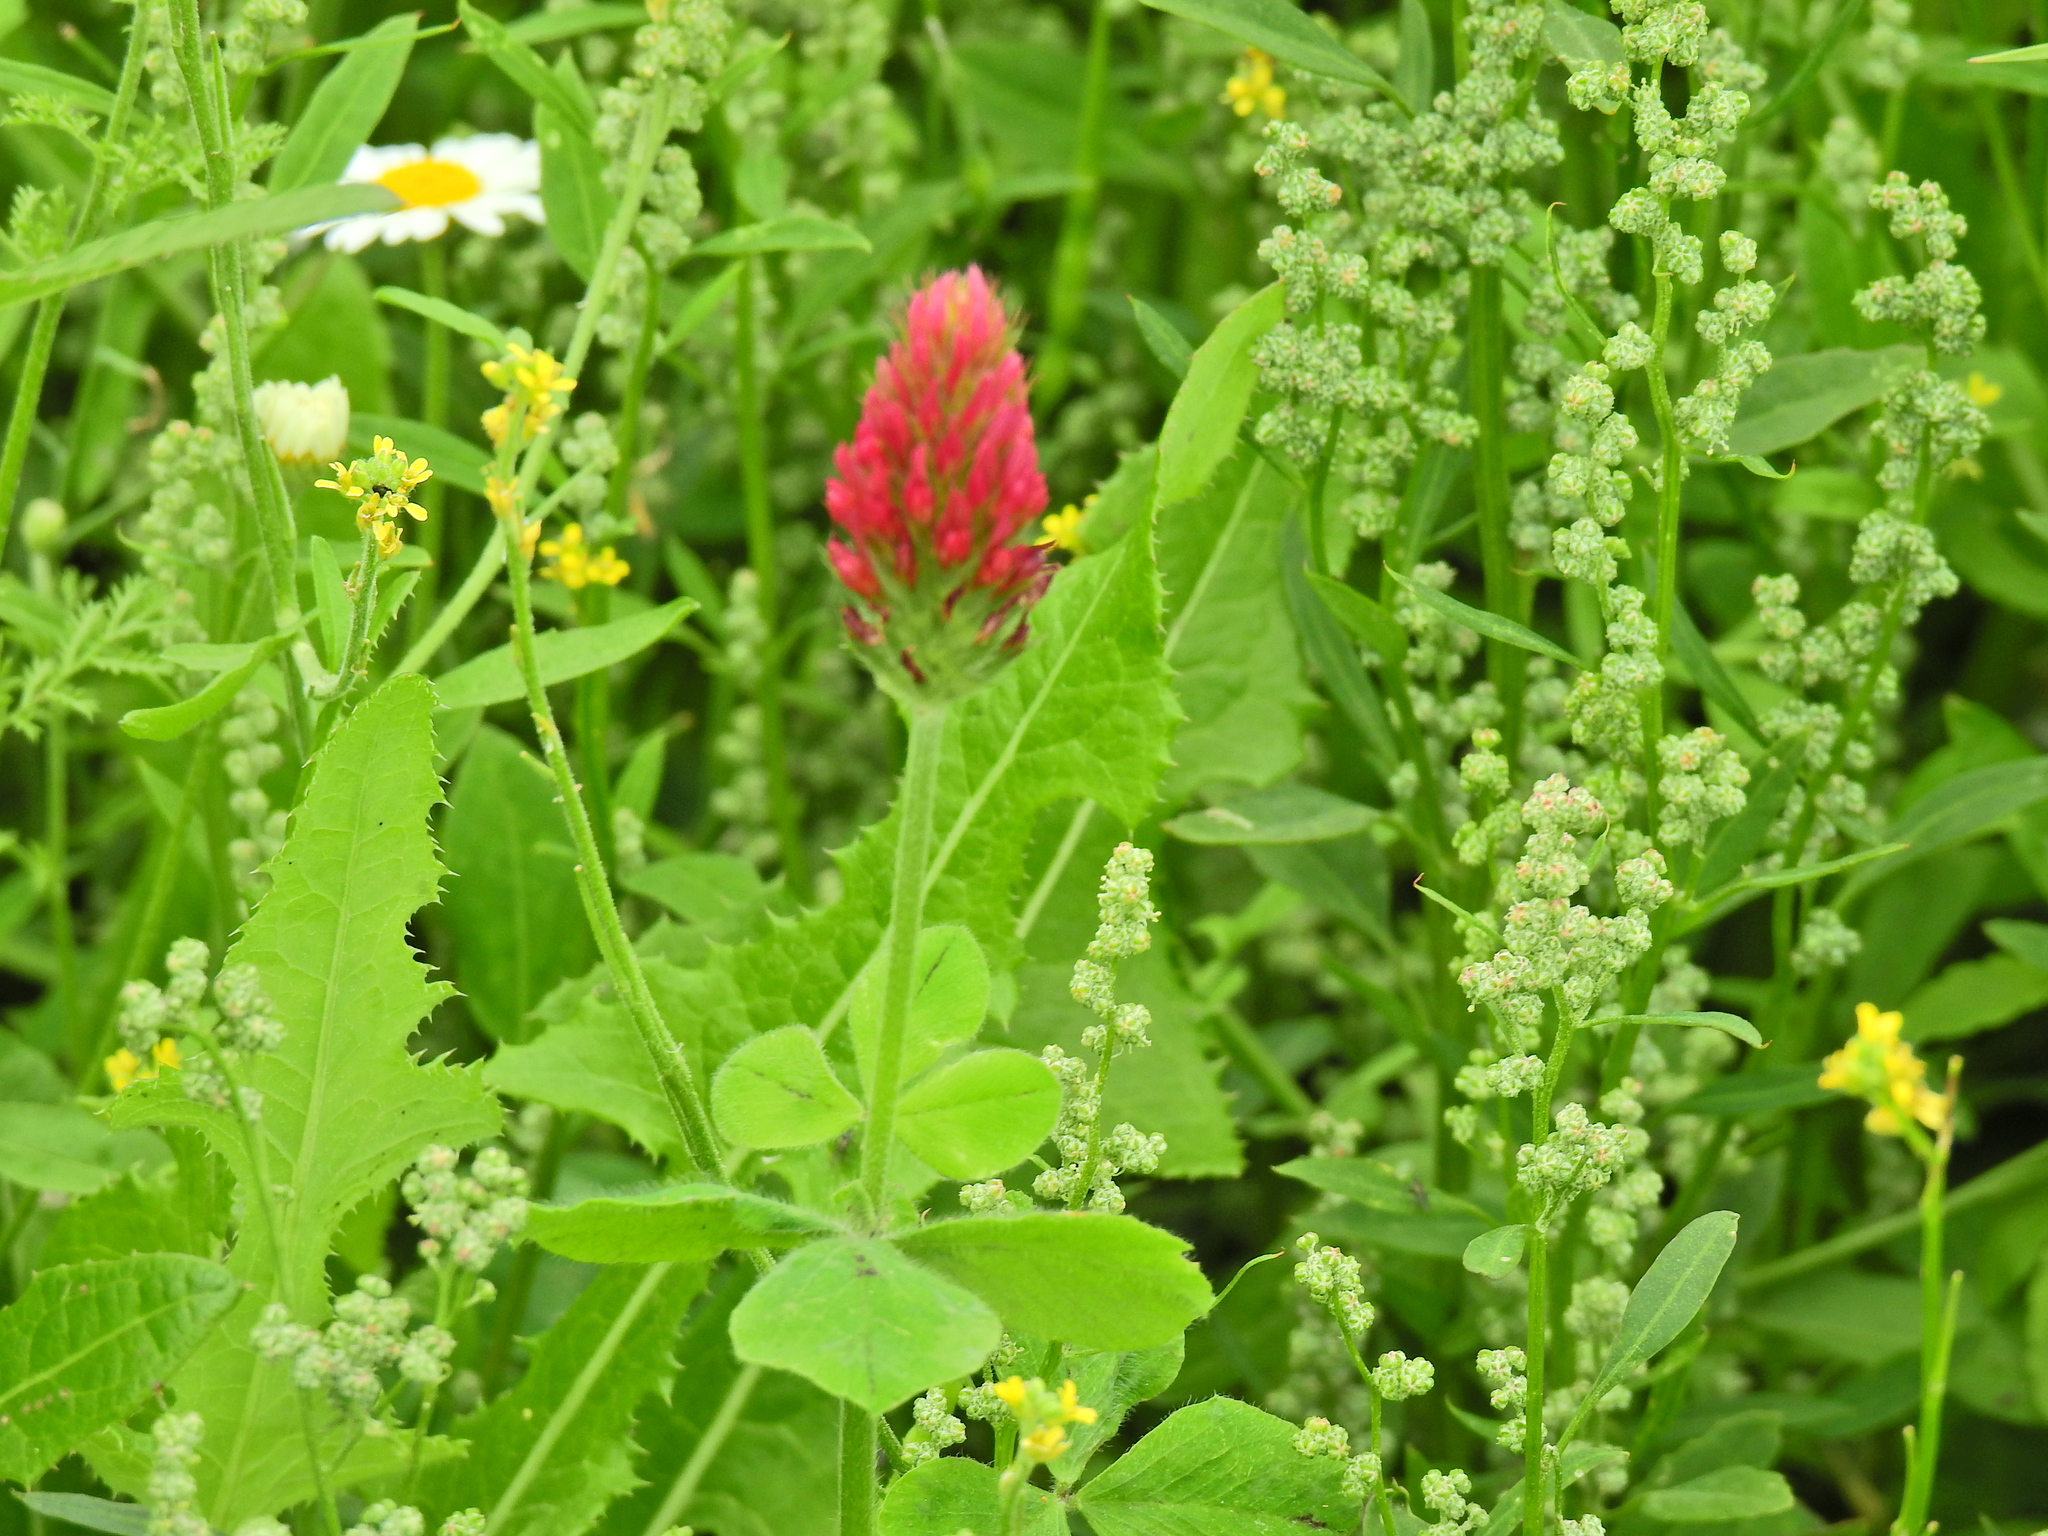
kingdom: Plantae
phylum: Tracheophyta
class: Magnoliopsida
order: Fabales
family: Fabaceae
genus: Trifolium
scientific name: Trifolium incarnatum
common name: Crimson clover
